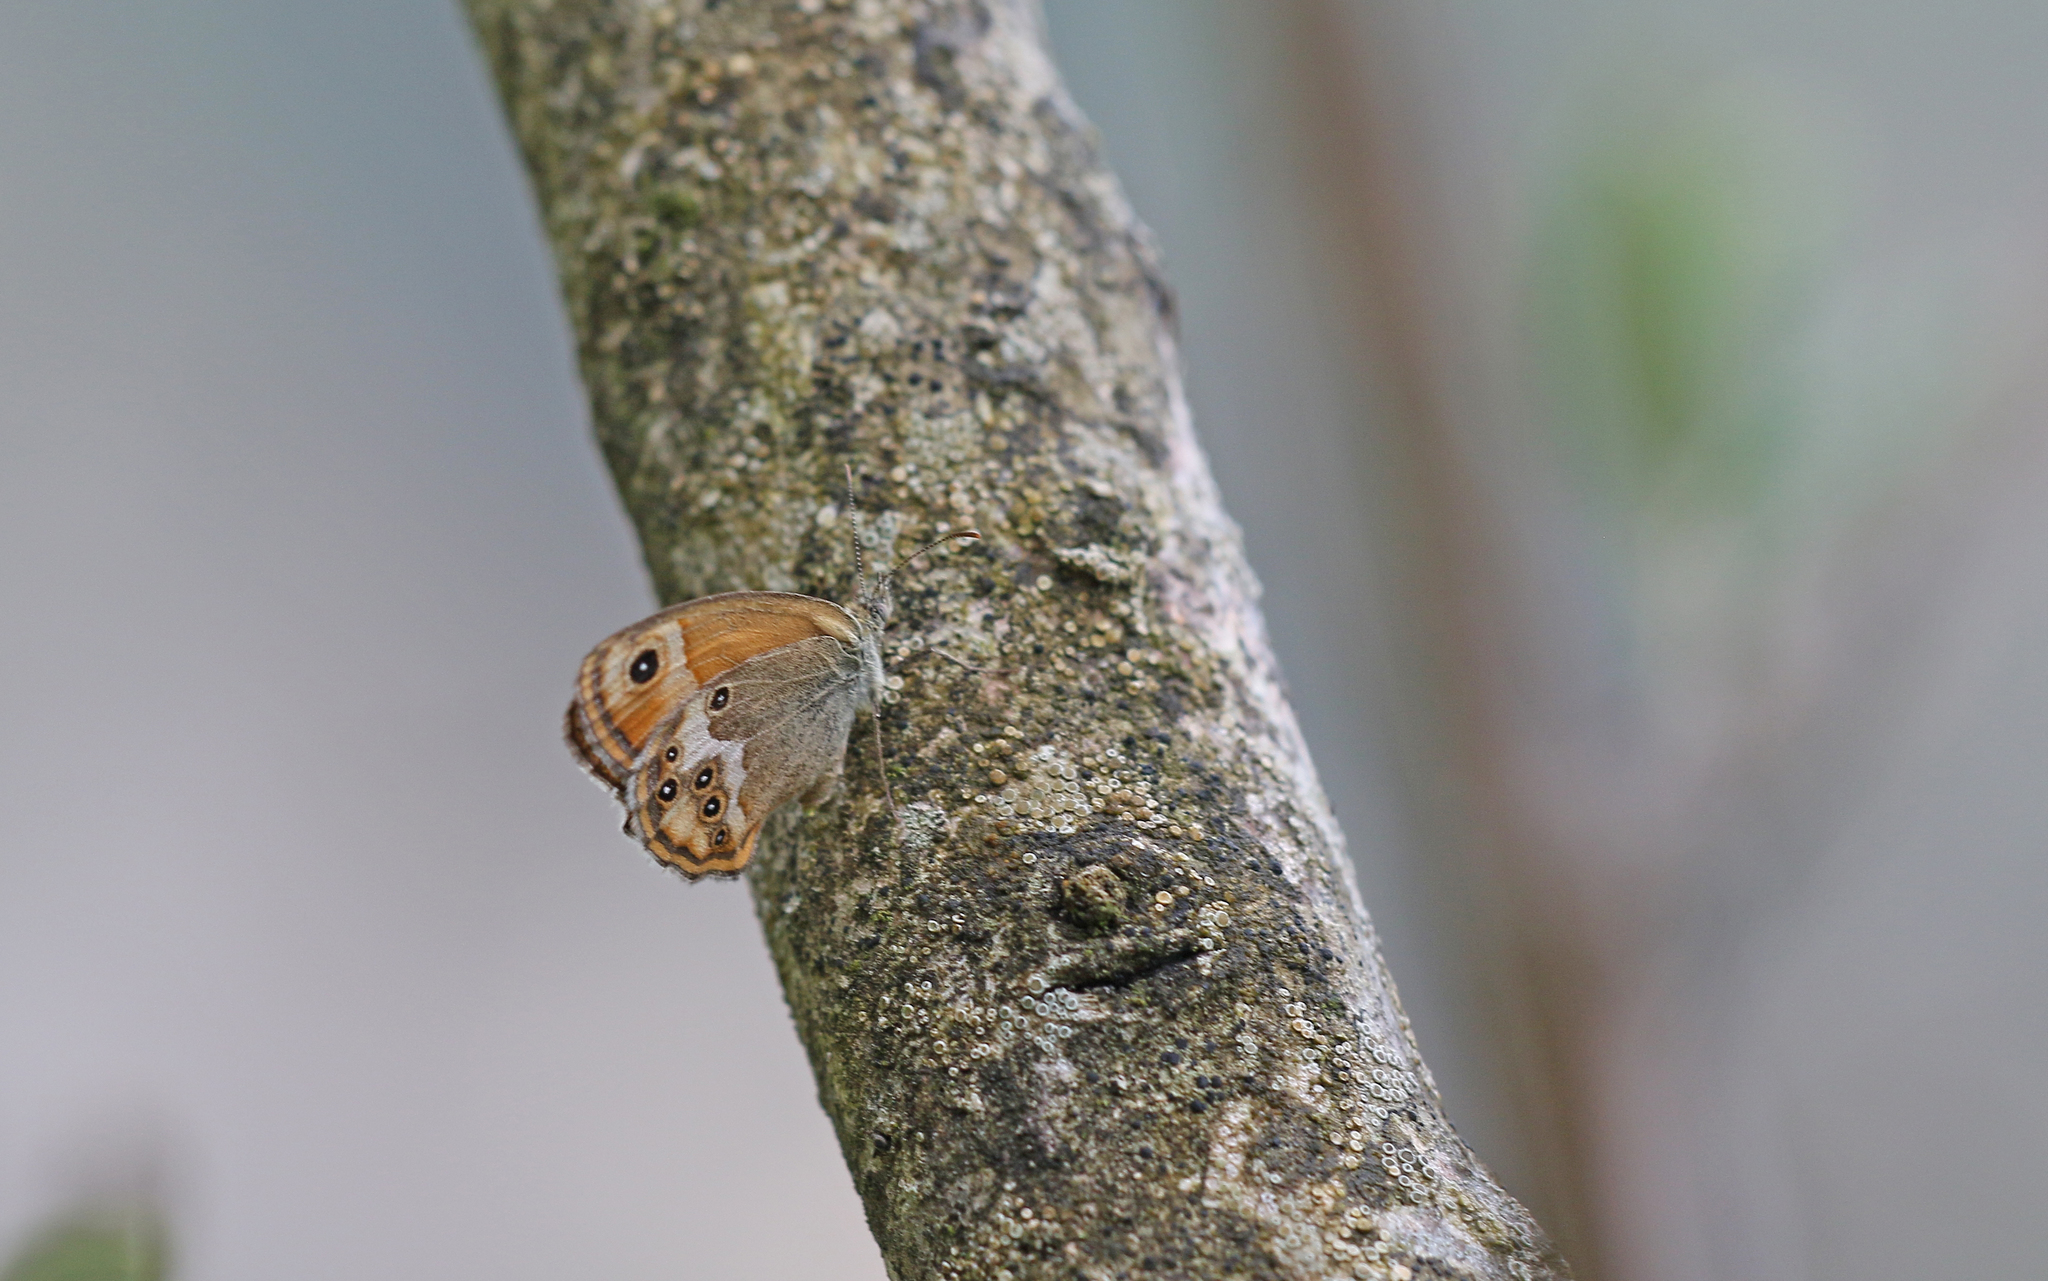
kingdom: Animalia
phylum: Arthropoda
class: Insecta
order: Lepidoptera
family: Nymphalidae
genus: Coenonympha
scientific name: Coenonympha dorus
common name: Dusky heath
